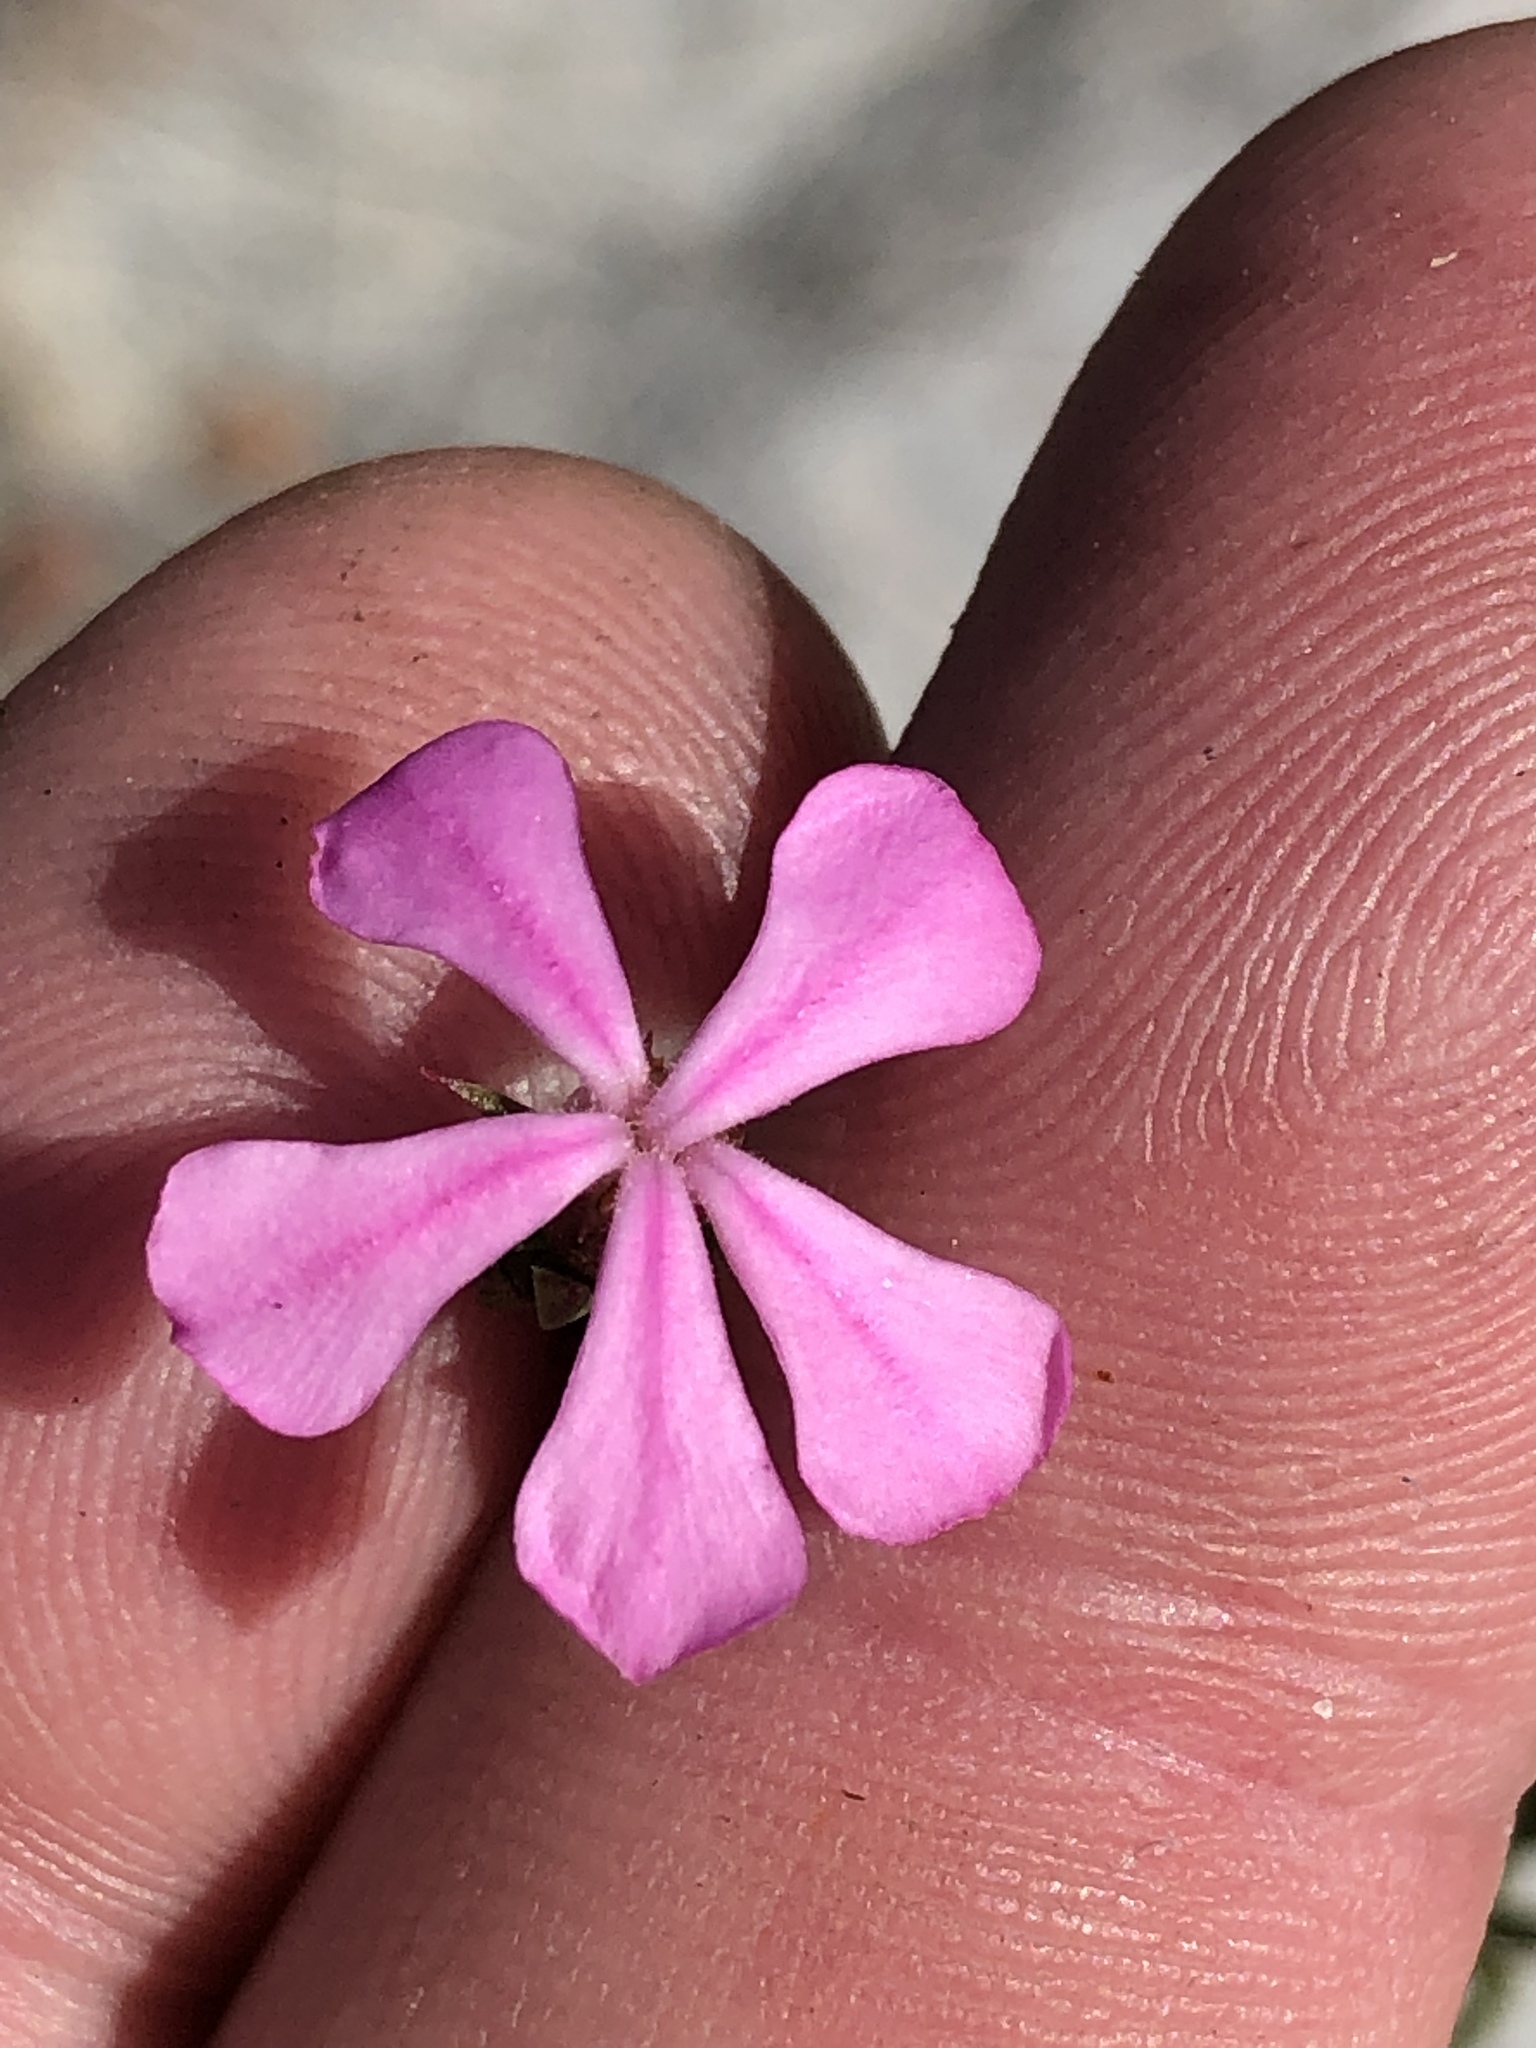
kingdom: Plantae
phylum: Tracheophyta
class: Magnoliopsida
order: Sapindales
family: Rutaceae
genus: Acmadenia
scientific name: Acmadenia maculata
